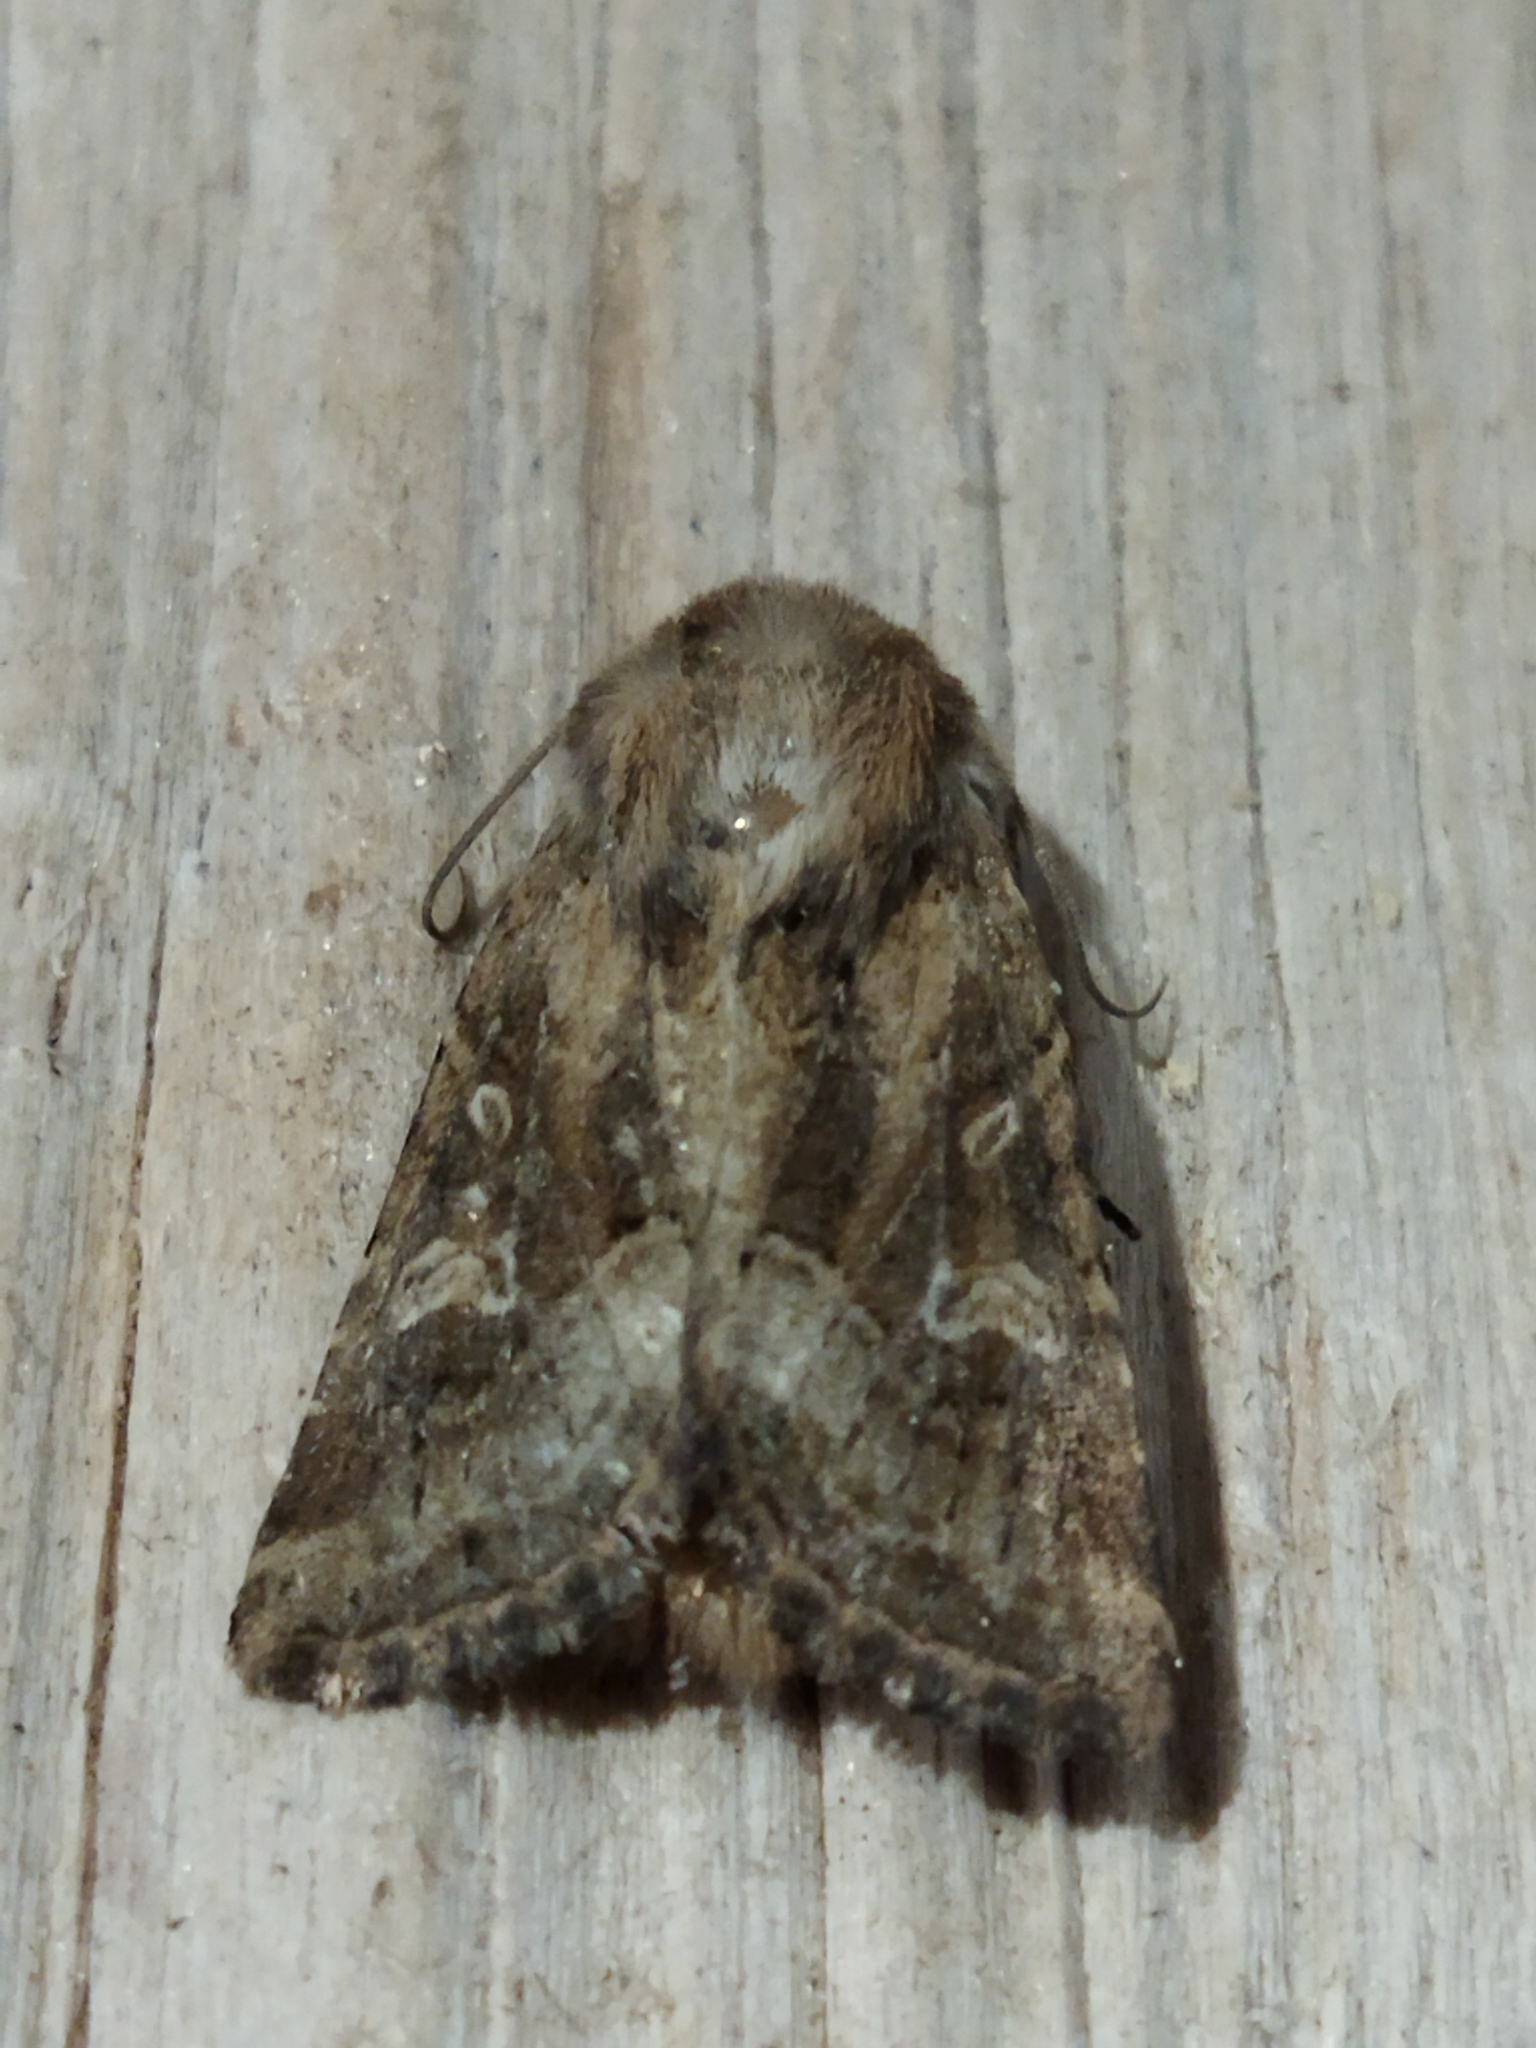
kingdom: Animalia
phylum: Arthropoda
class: Insecta
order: Lepidoptera
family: Noctuidae
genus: Luperina
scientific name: Luperina dumerilii
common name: Dumeril's rustic
